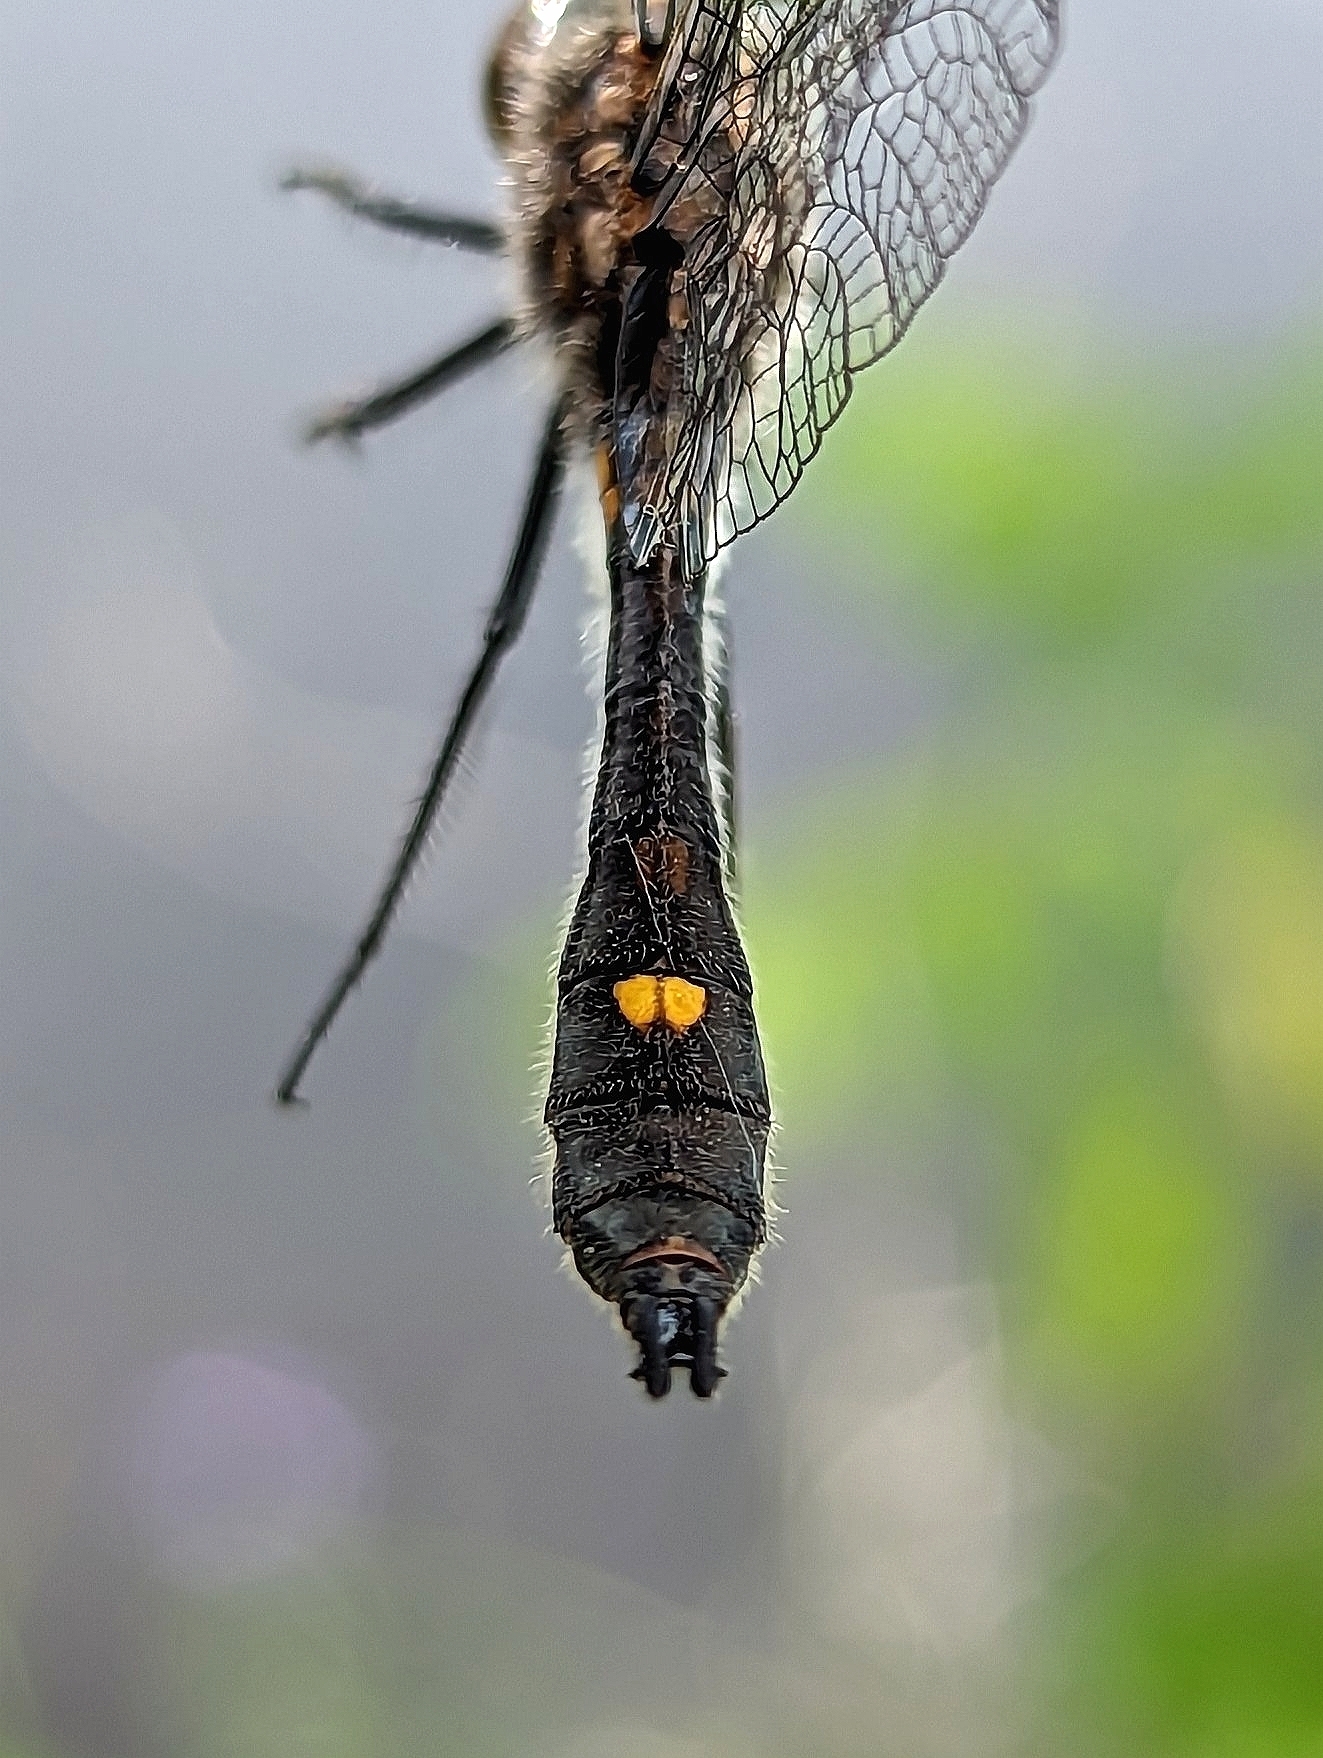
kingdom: Animalia
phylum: Arthropoda
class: Insecta
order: Odonata
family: Libellulidae
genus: Leucorrhinia
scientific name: Leucorrhinia intacta
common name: Dot-tailed whiteface
